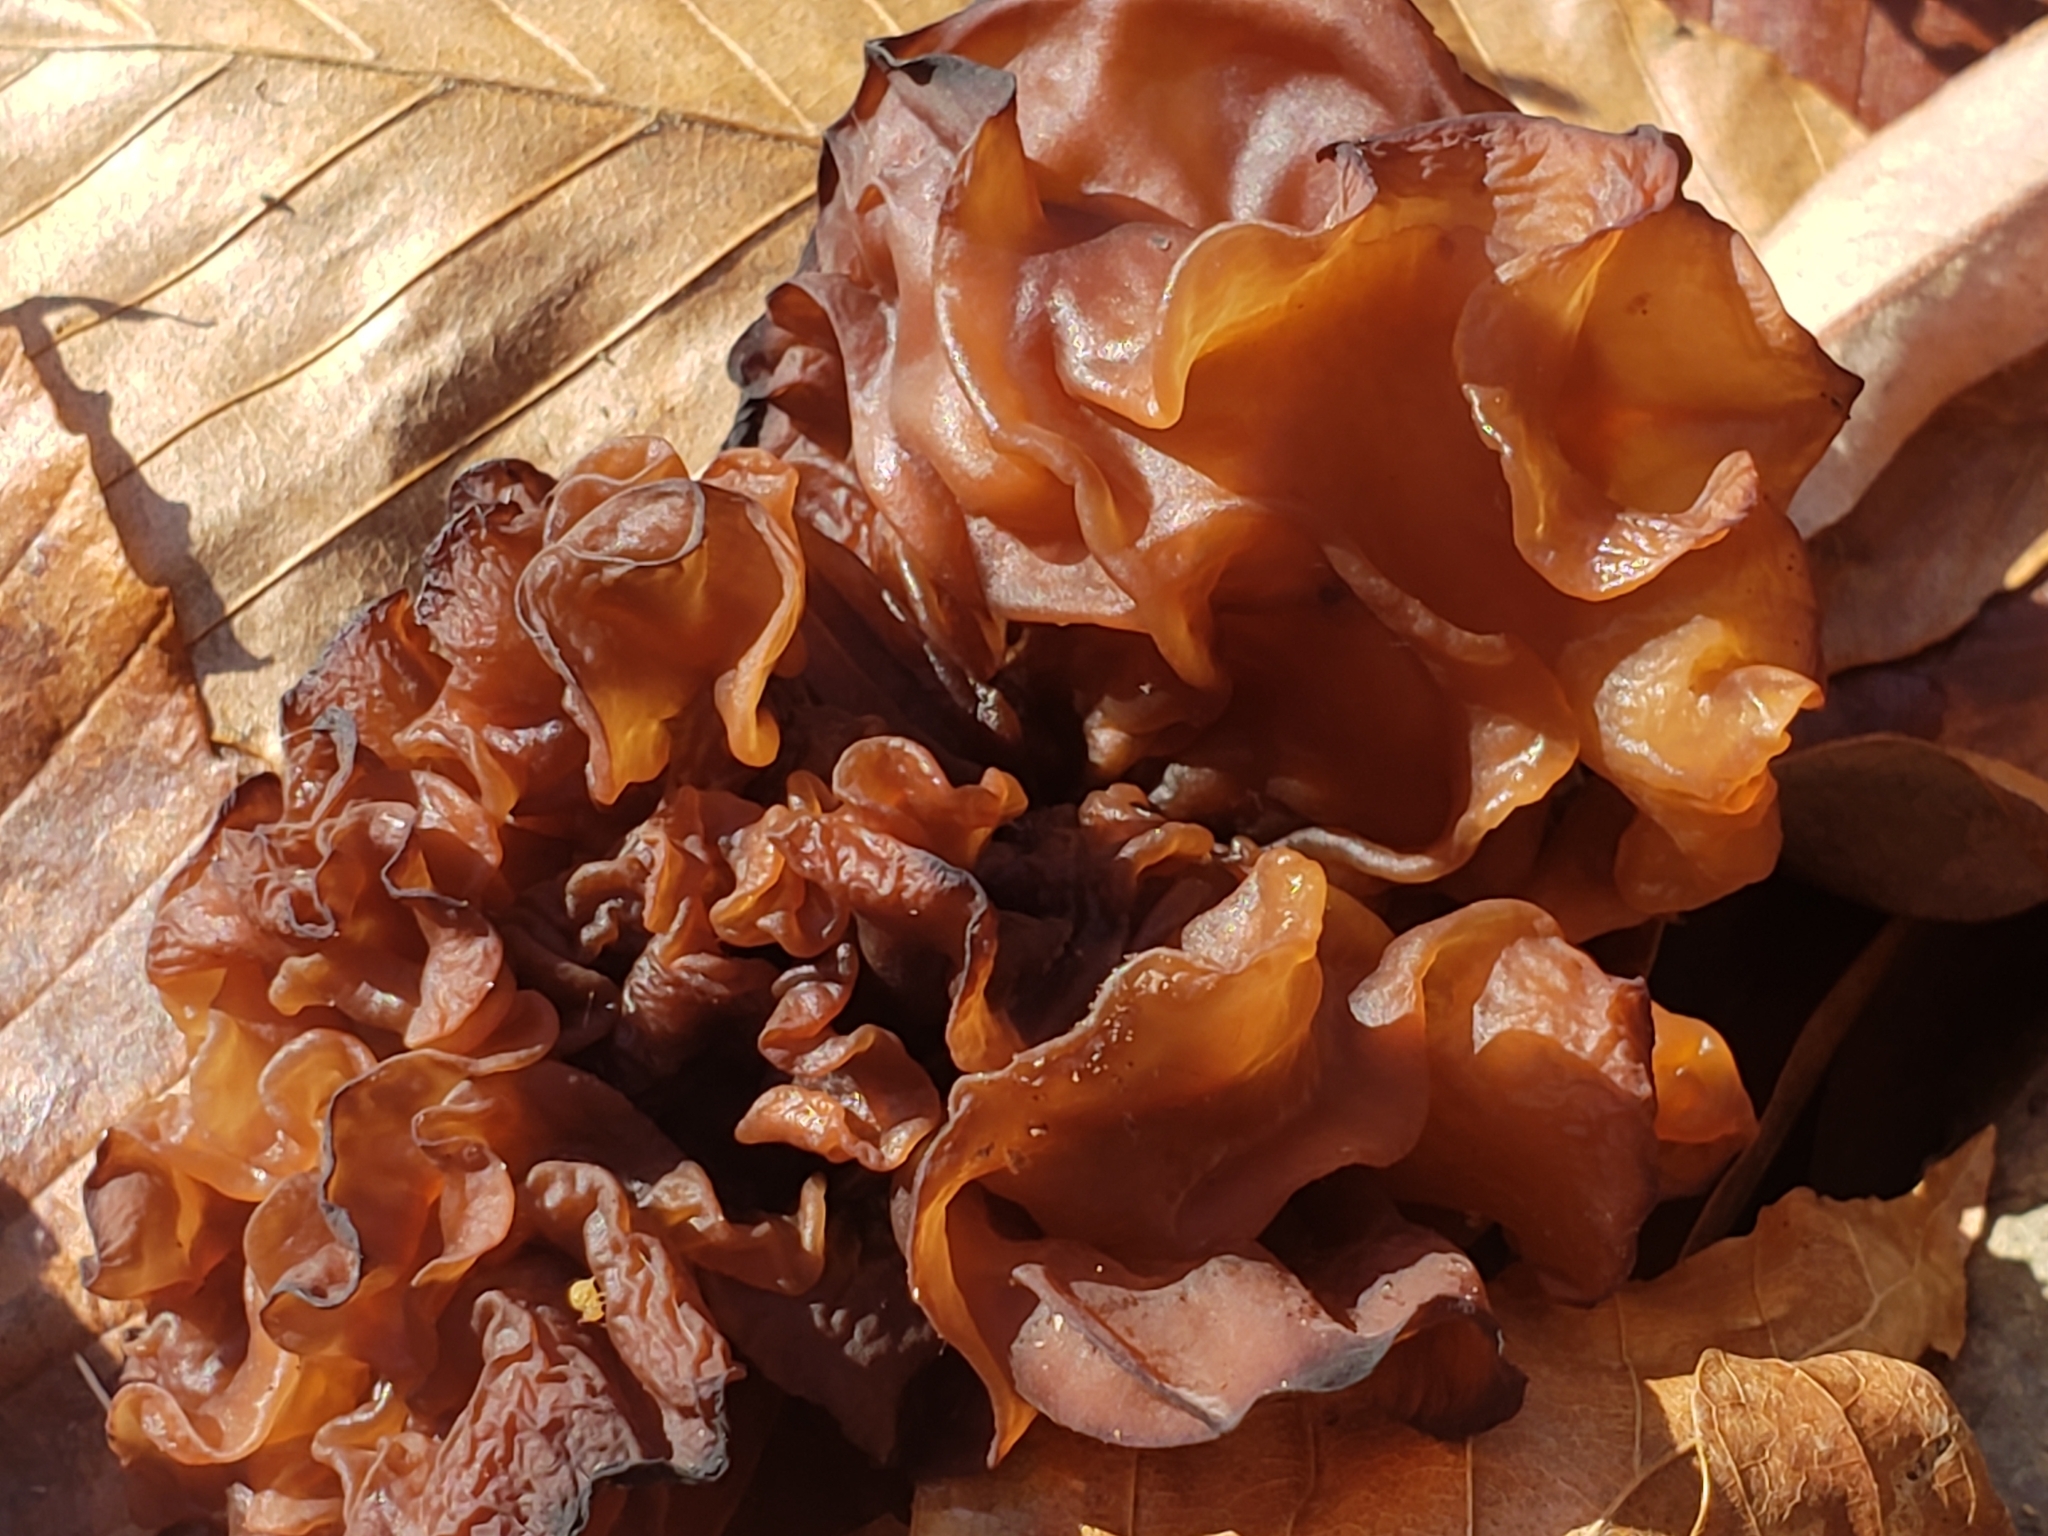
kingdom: Fungi
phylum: Basidiomycota
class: Tremellomycetes
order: Tremellales
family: Tremellaceae
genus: Phaeotremella
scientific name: Phaeotremella foliacea
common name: Leafy brain
